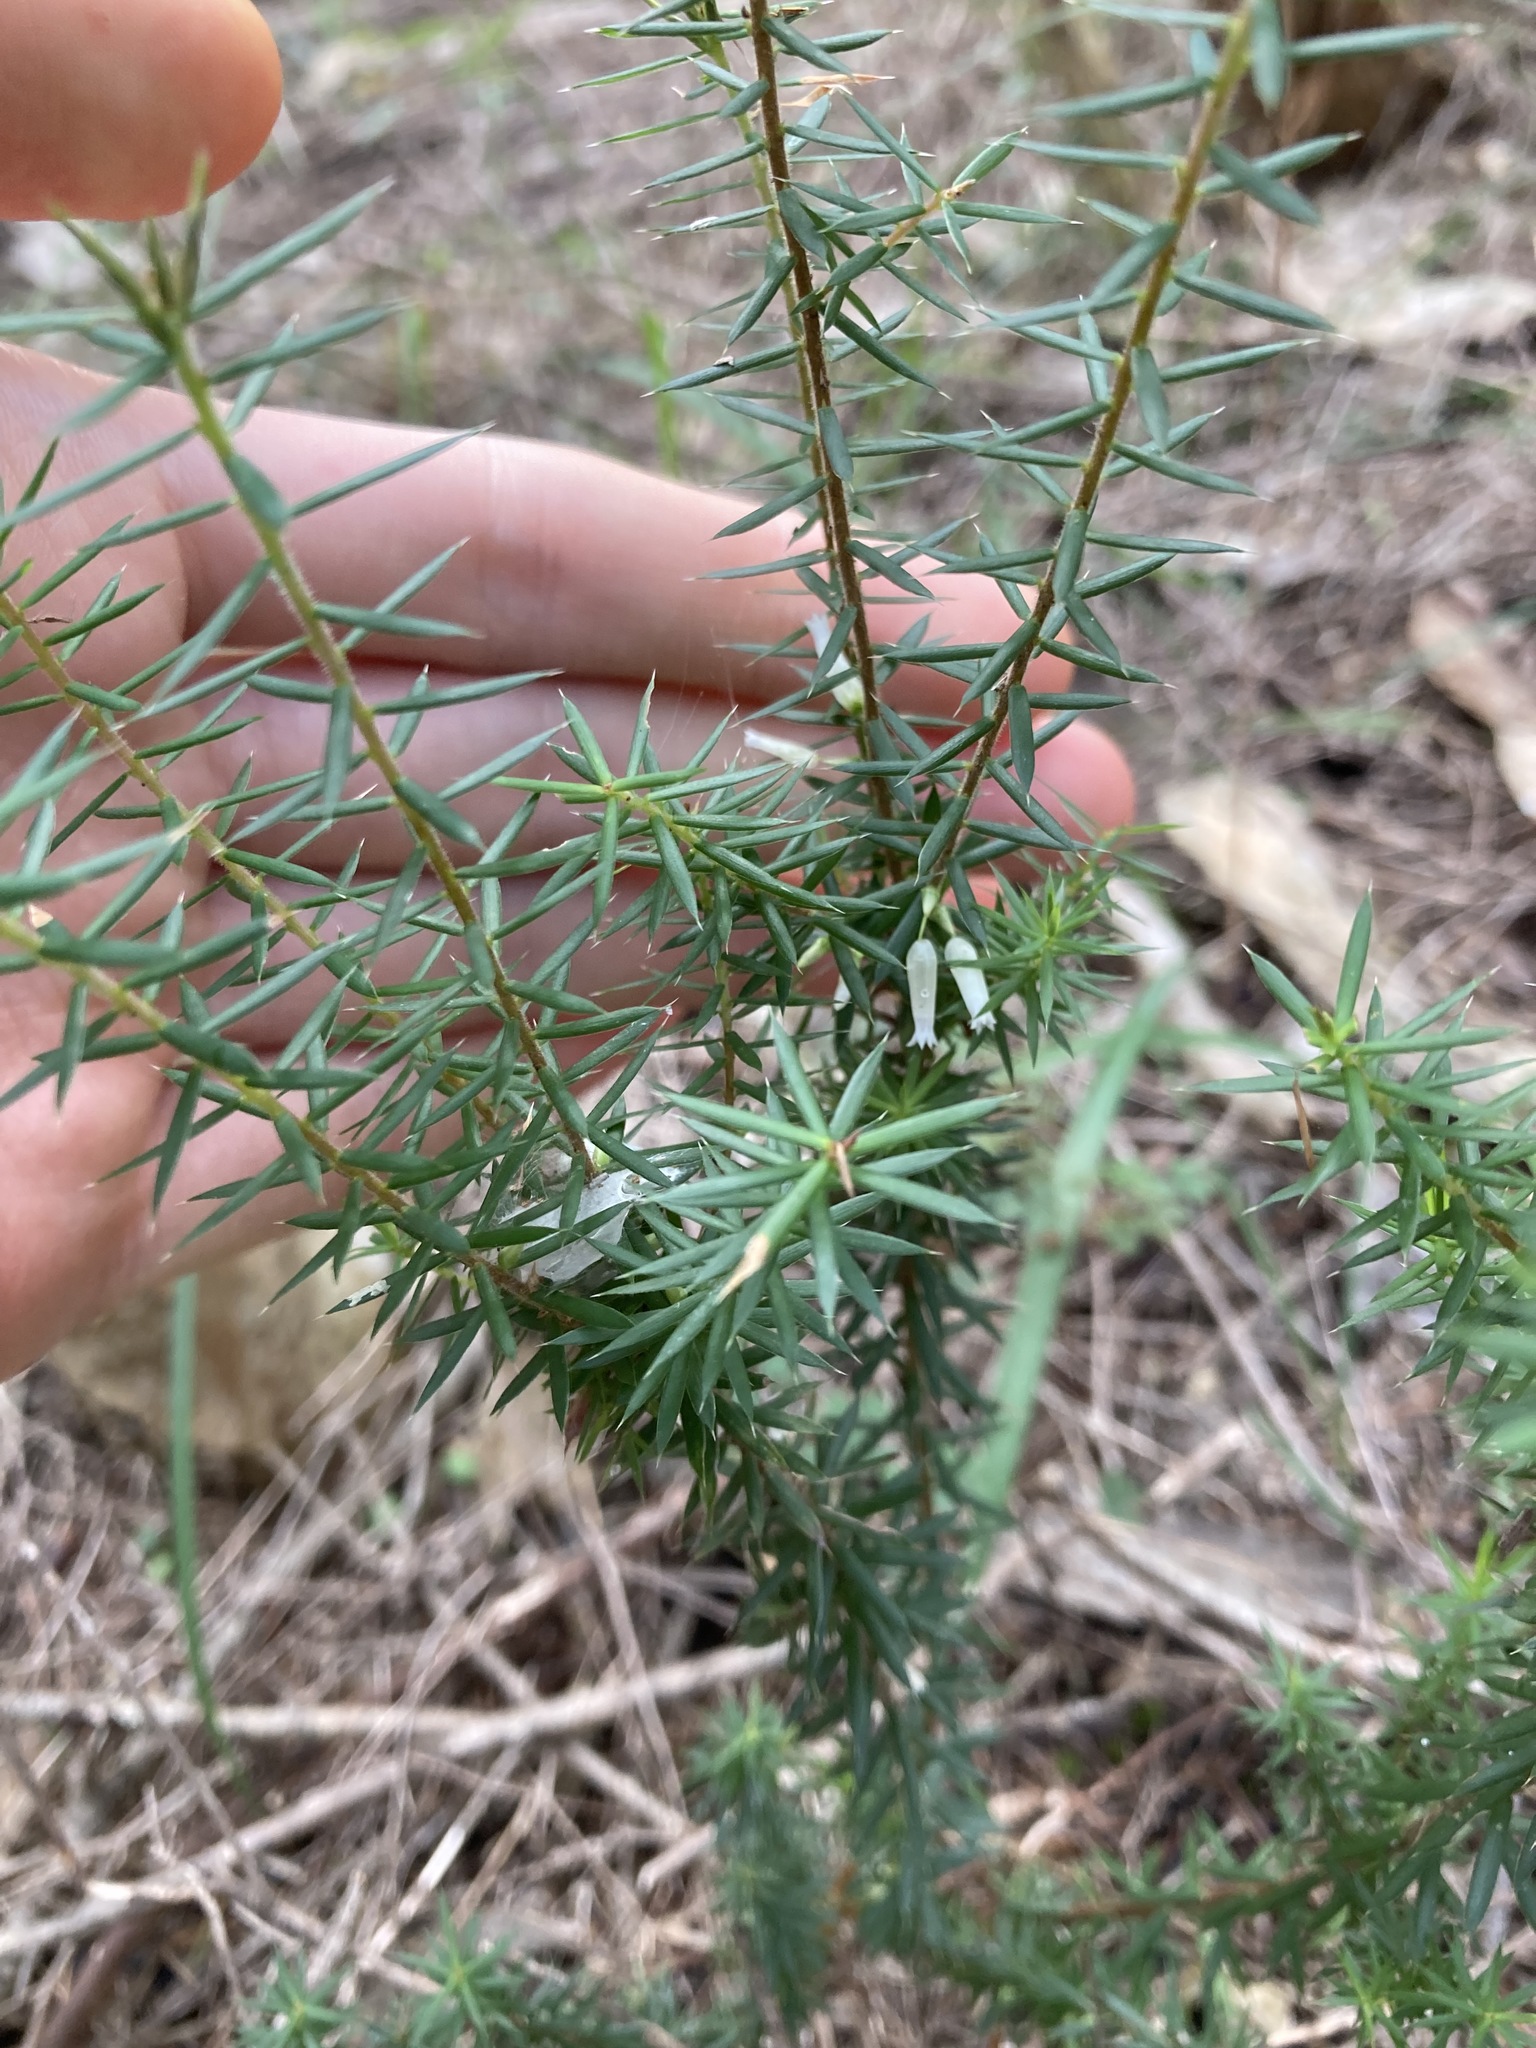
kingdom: Plantae
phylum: Tracheophyta
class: Magnoliopsida
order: Ericales
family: Ericaceae
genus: Styphelia
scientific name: Styphelia sieberi
